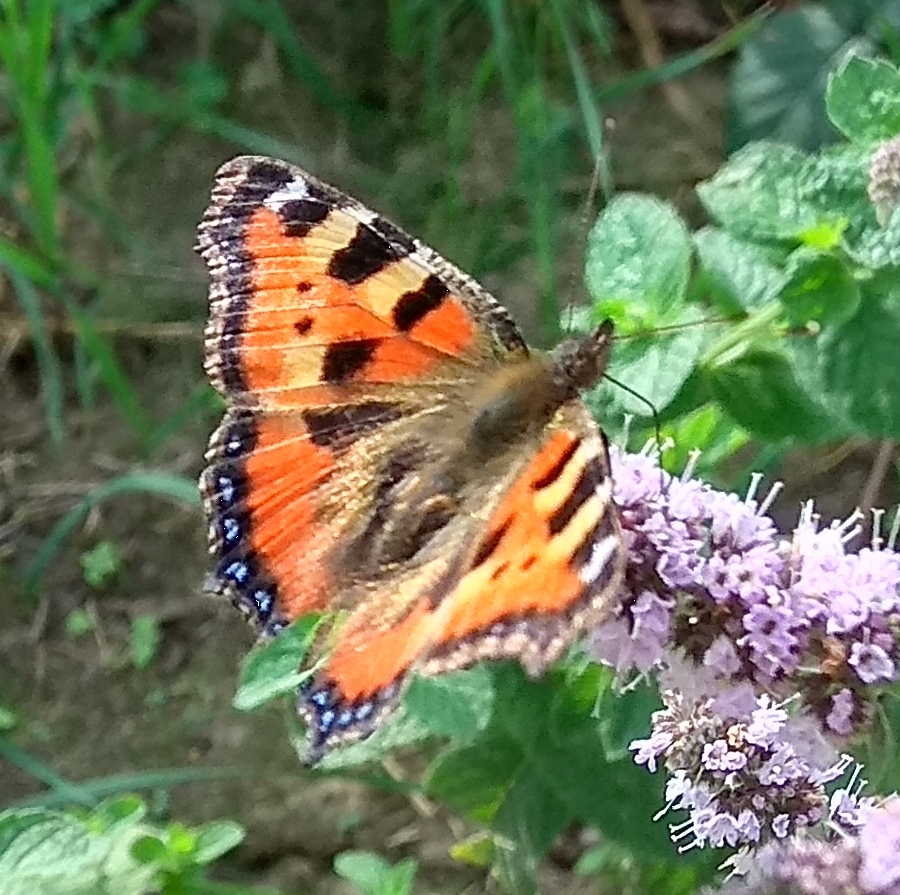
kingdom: Animalia
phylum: Arthropoda
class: Insecta
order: Lepidoptera
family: Nymphalidae
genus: Aglais
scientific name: Aglais urticae
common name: Small tortoiseshell
